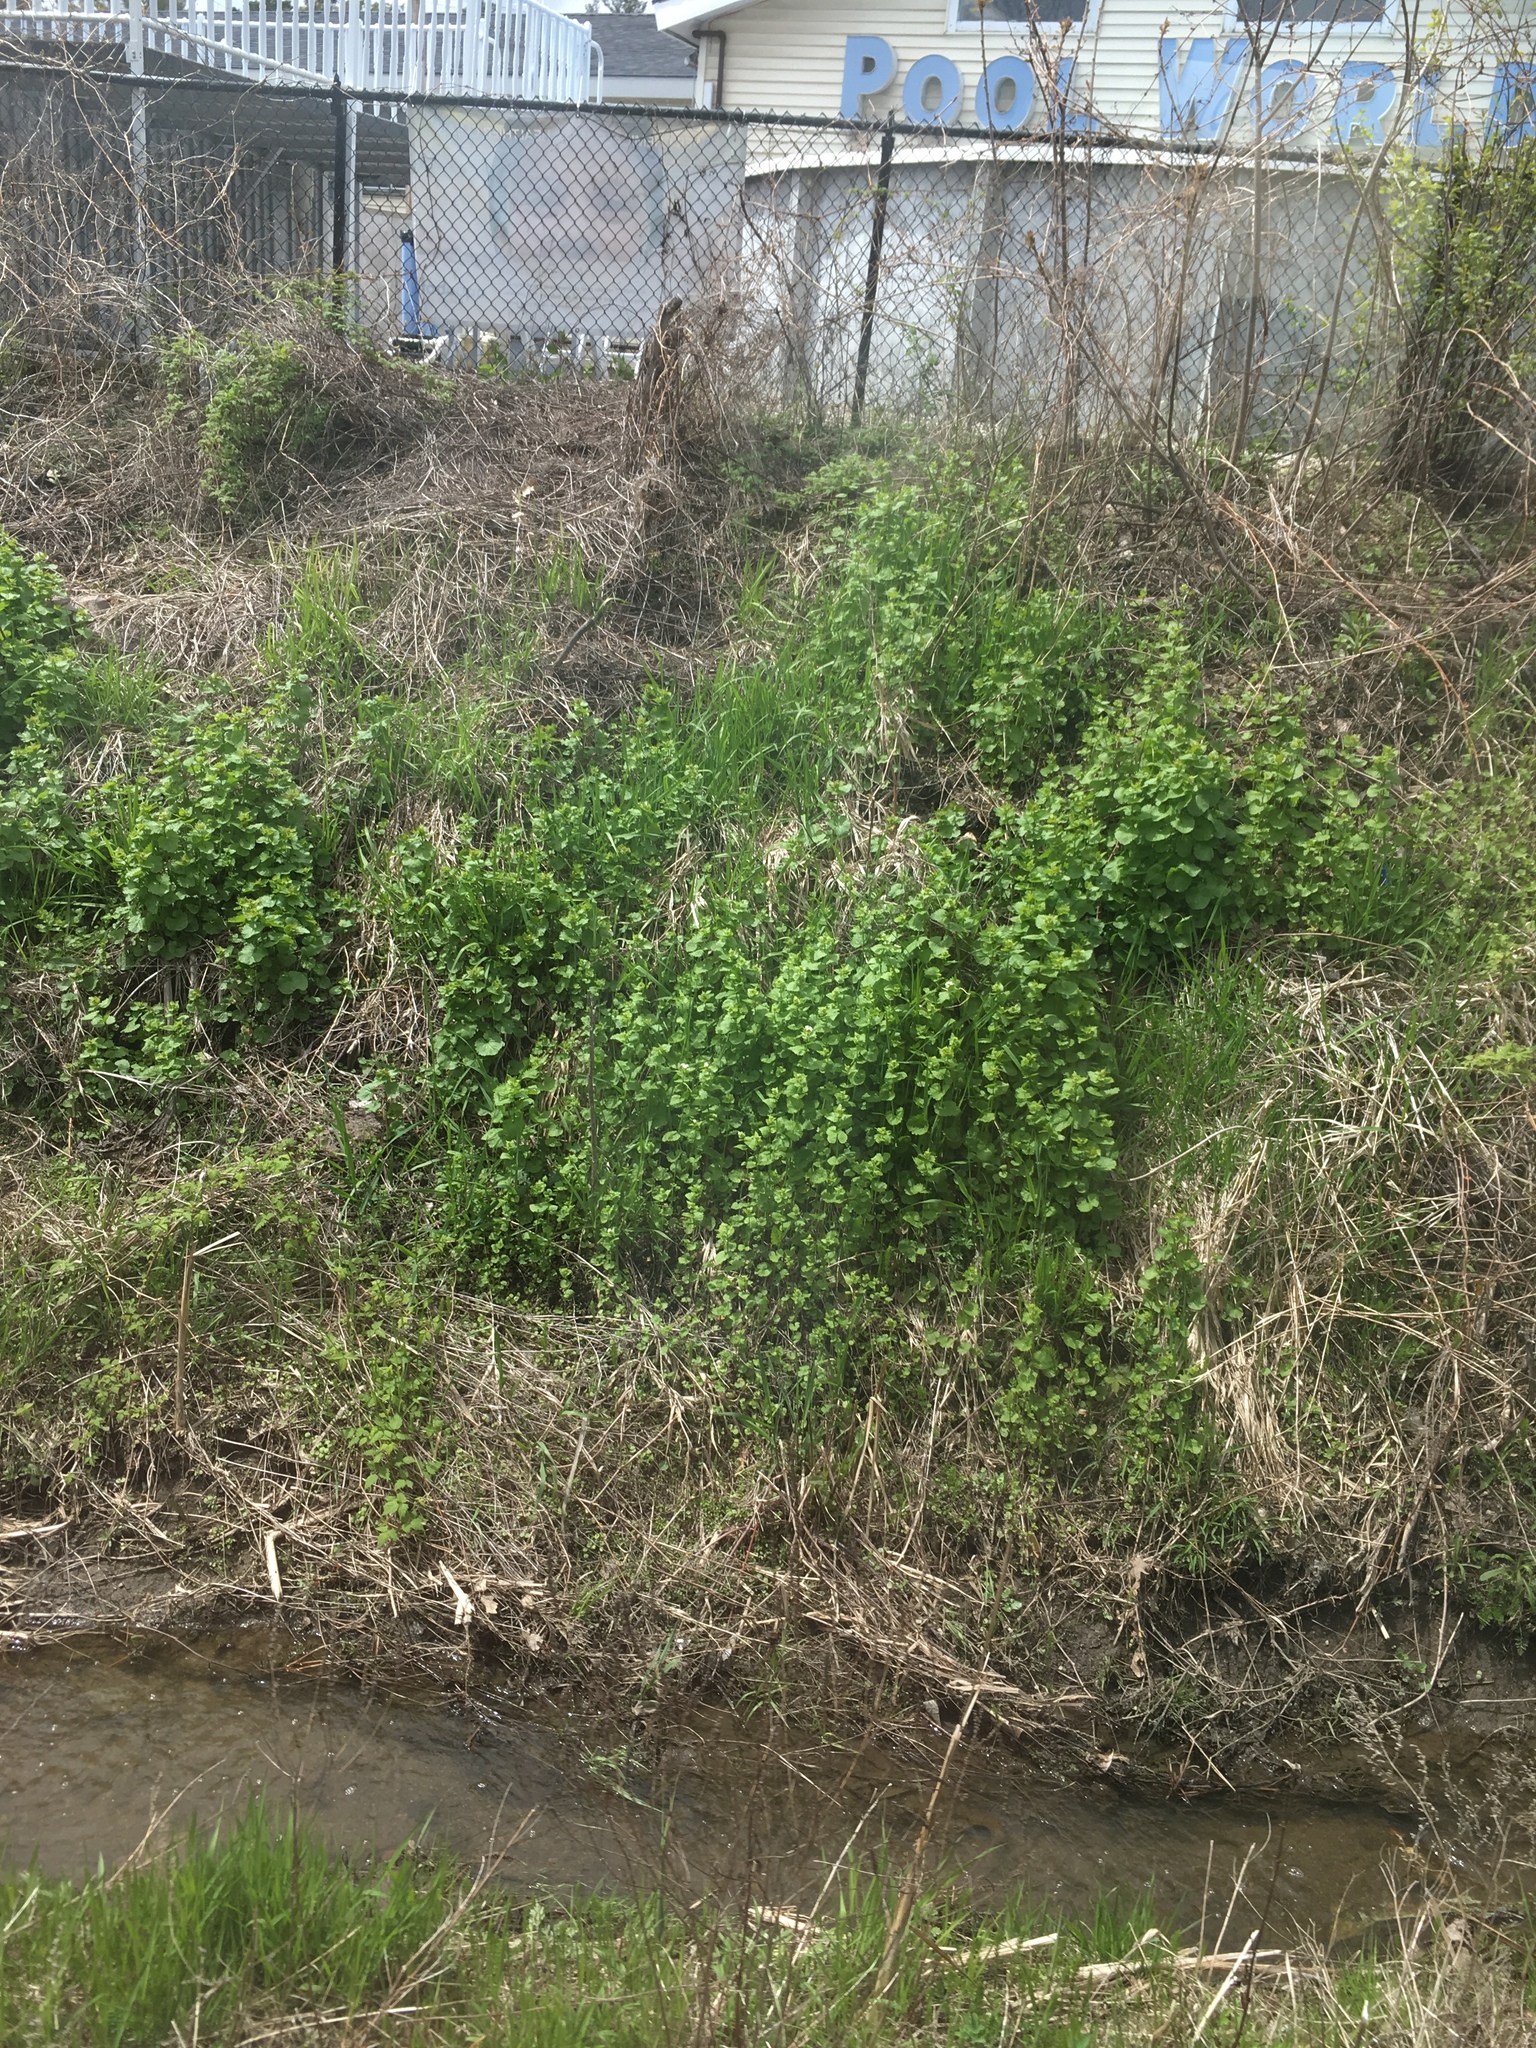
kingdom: Plantae
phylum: Tracheophyta
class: Magnoliopsida
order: Brassicales
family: Brassicaceae
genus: Alliaria
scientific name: Alliaria petiolata
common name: Garlic mustard
